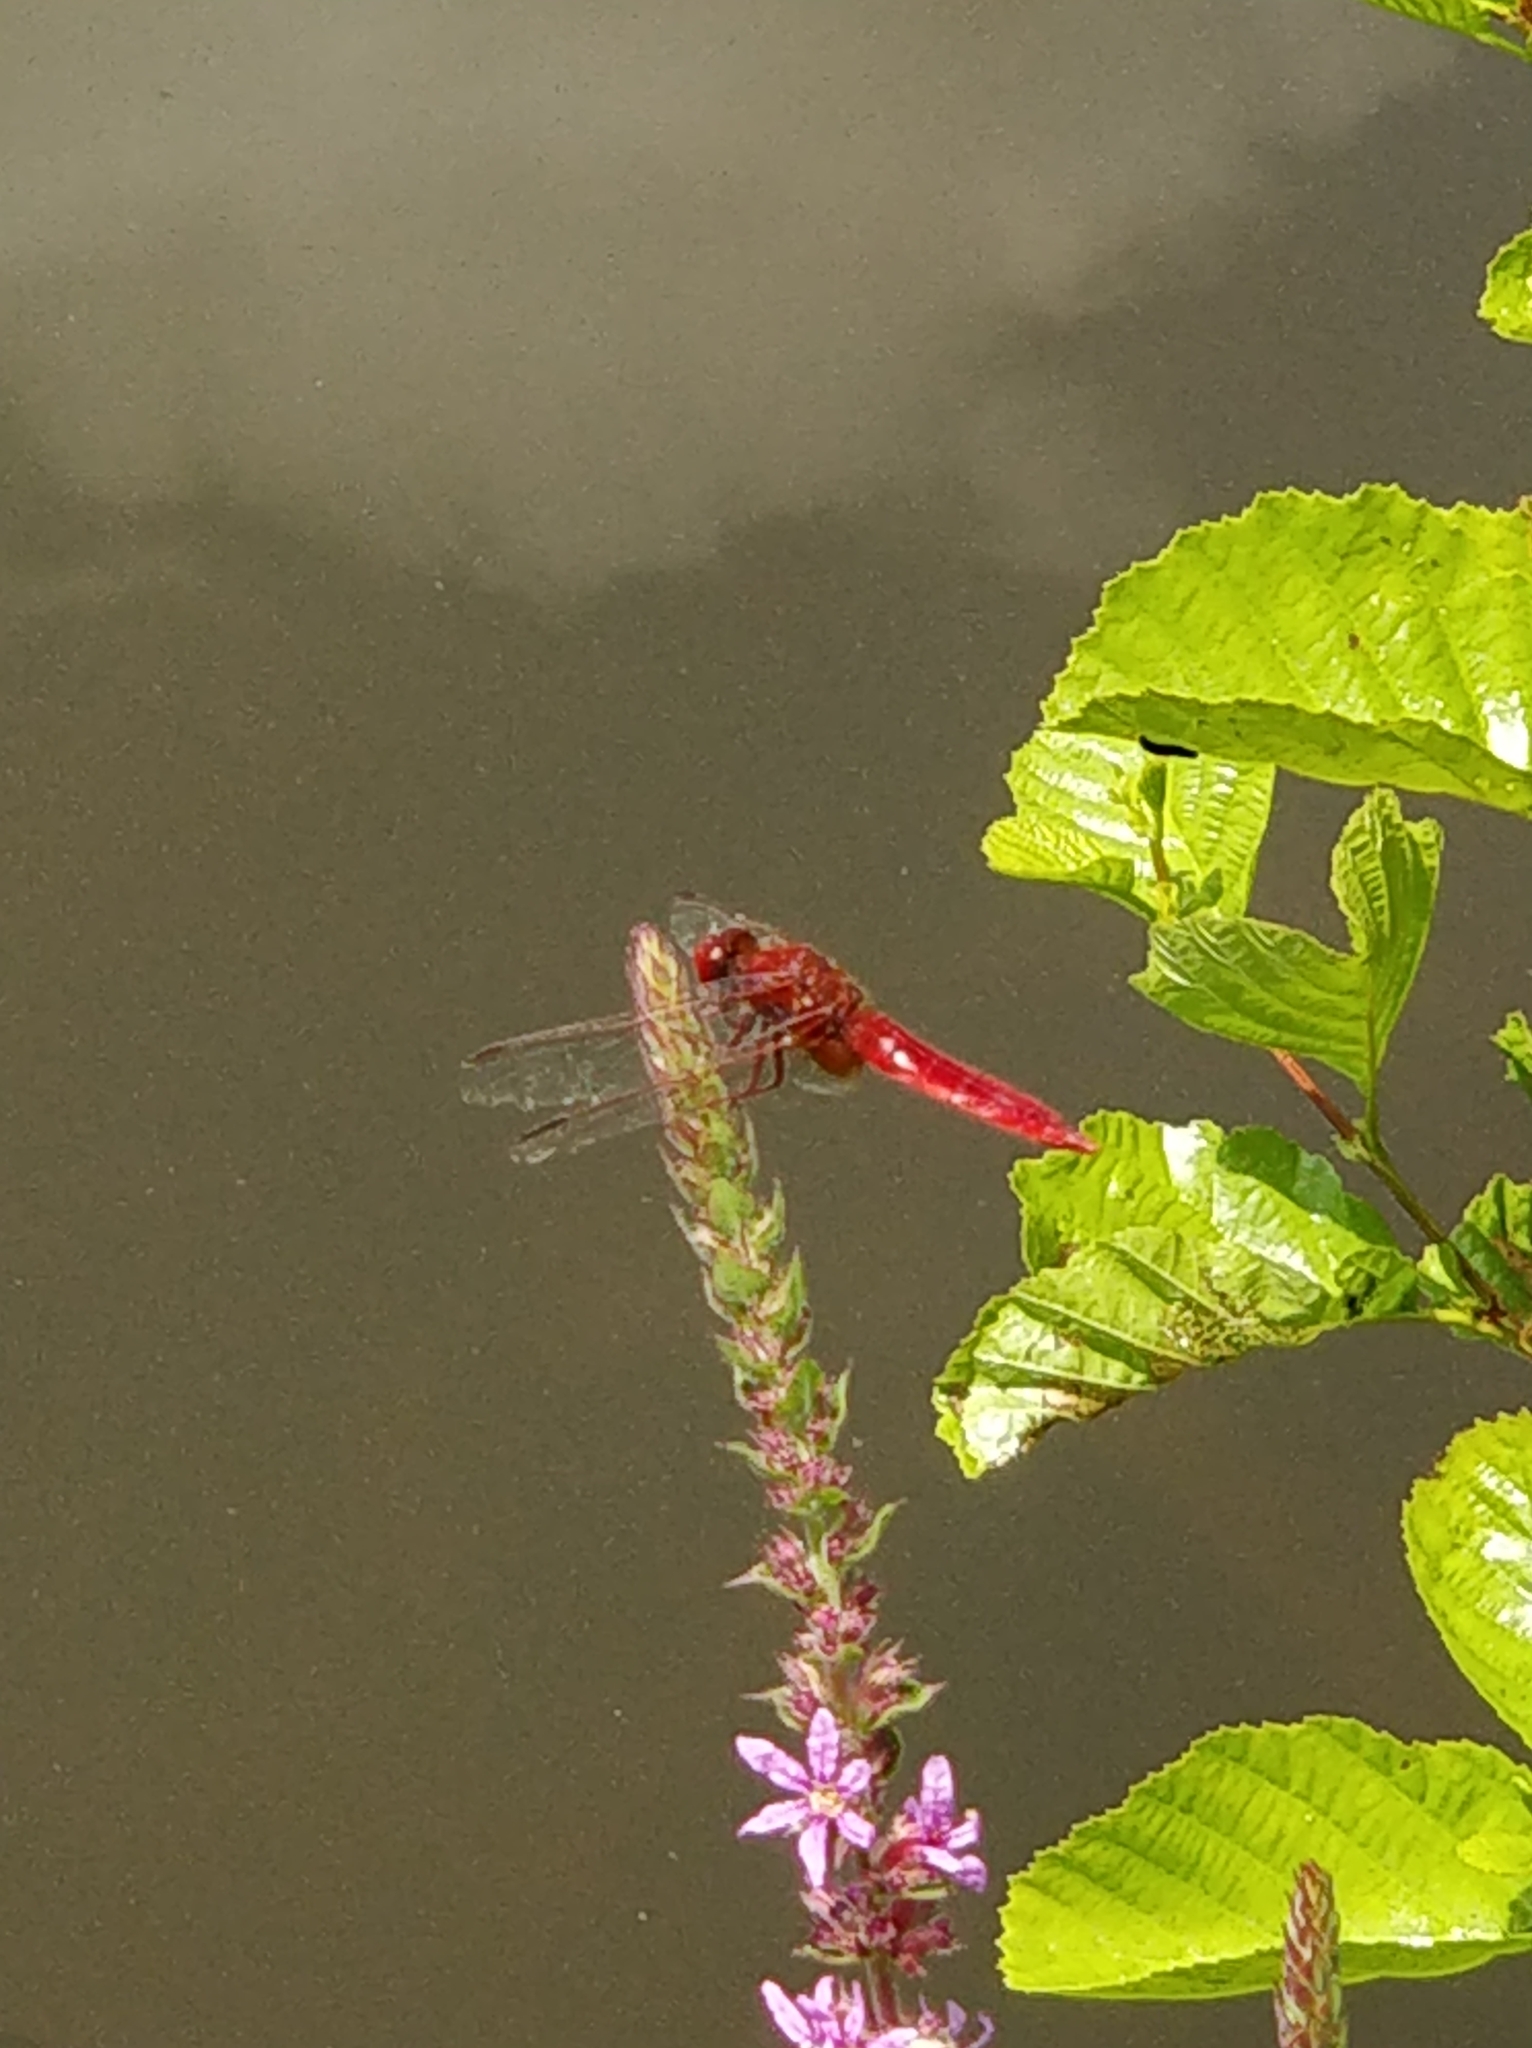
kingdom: Animalia
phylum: Arthropoda
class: Insecta
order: Odonata
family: Libellulidae
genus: Crocothemis
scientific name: Crocothemis erythraea
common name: Scarlet dragonfly
